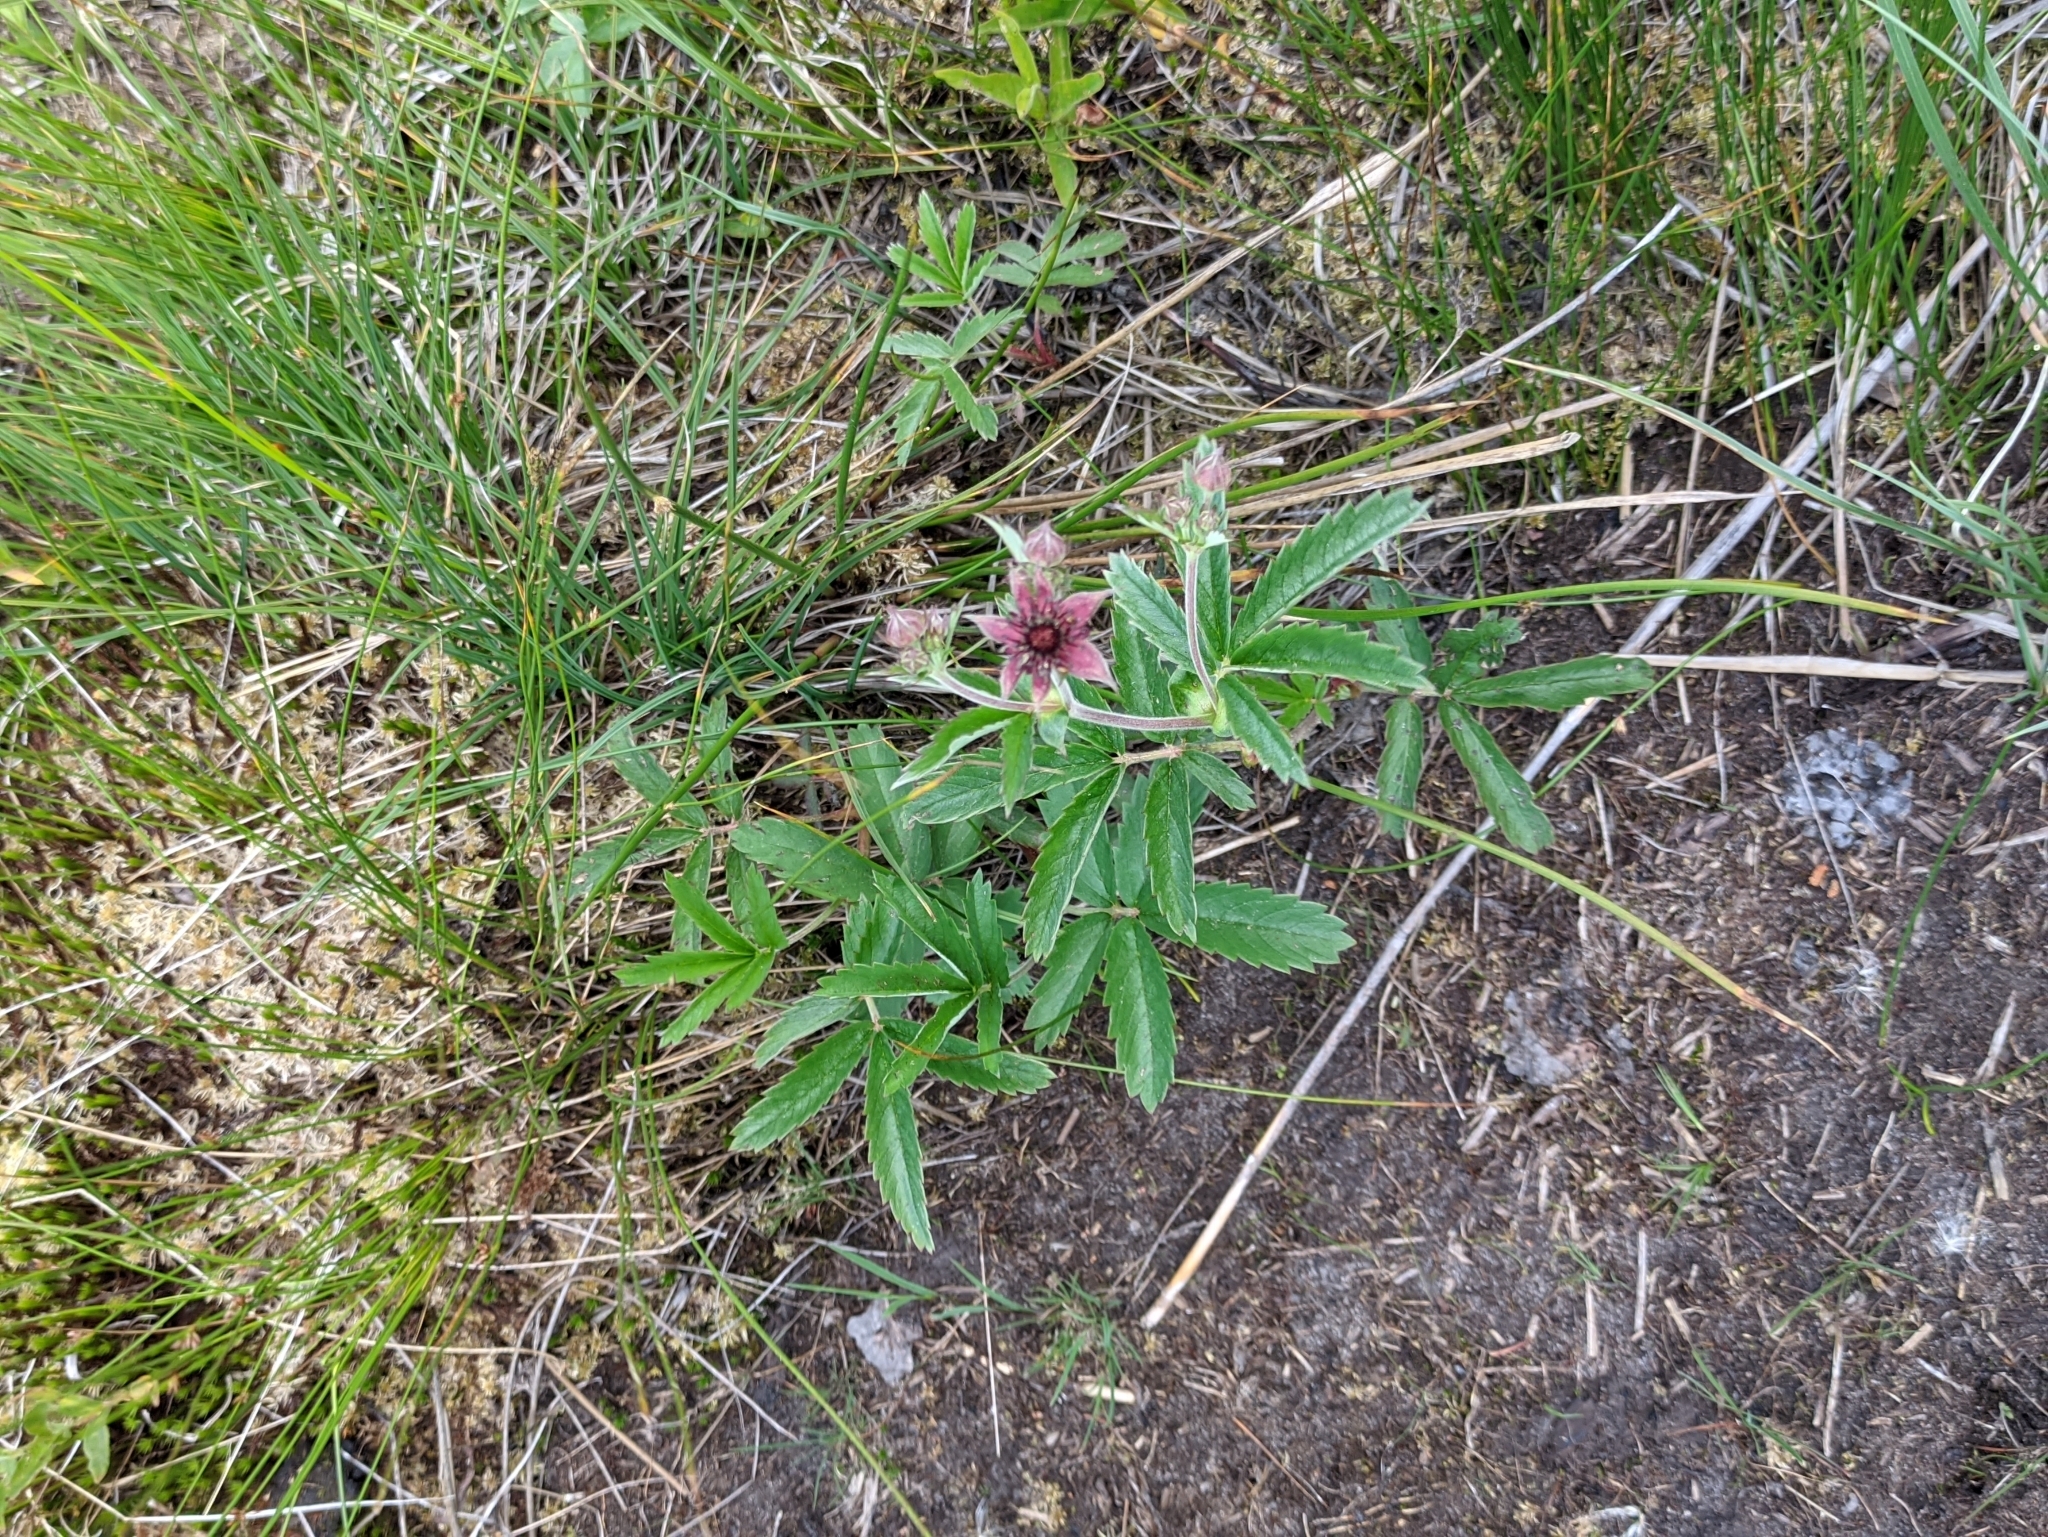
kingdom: Plantae
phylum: Tracheophyta
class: Magnoliopsida
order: Rosales
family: Rosaceae
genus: Comarum
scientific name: Comarum palustre
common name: Marsh cinquefoil
